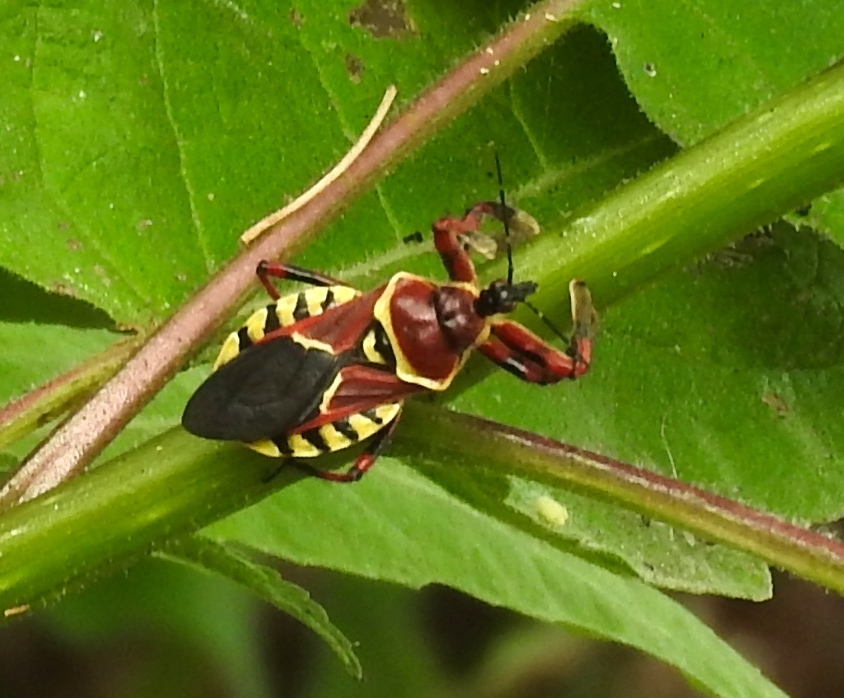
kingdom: Animalia
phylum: Arthropoda
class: Insecta
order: Hemiptera
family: Reduviidae
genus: Apiomerus
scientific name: Apiomerus flaviventris
